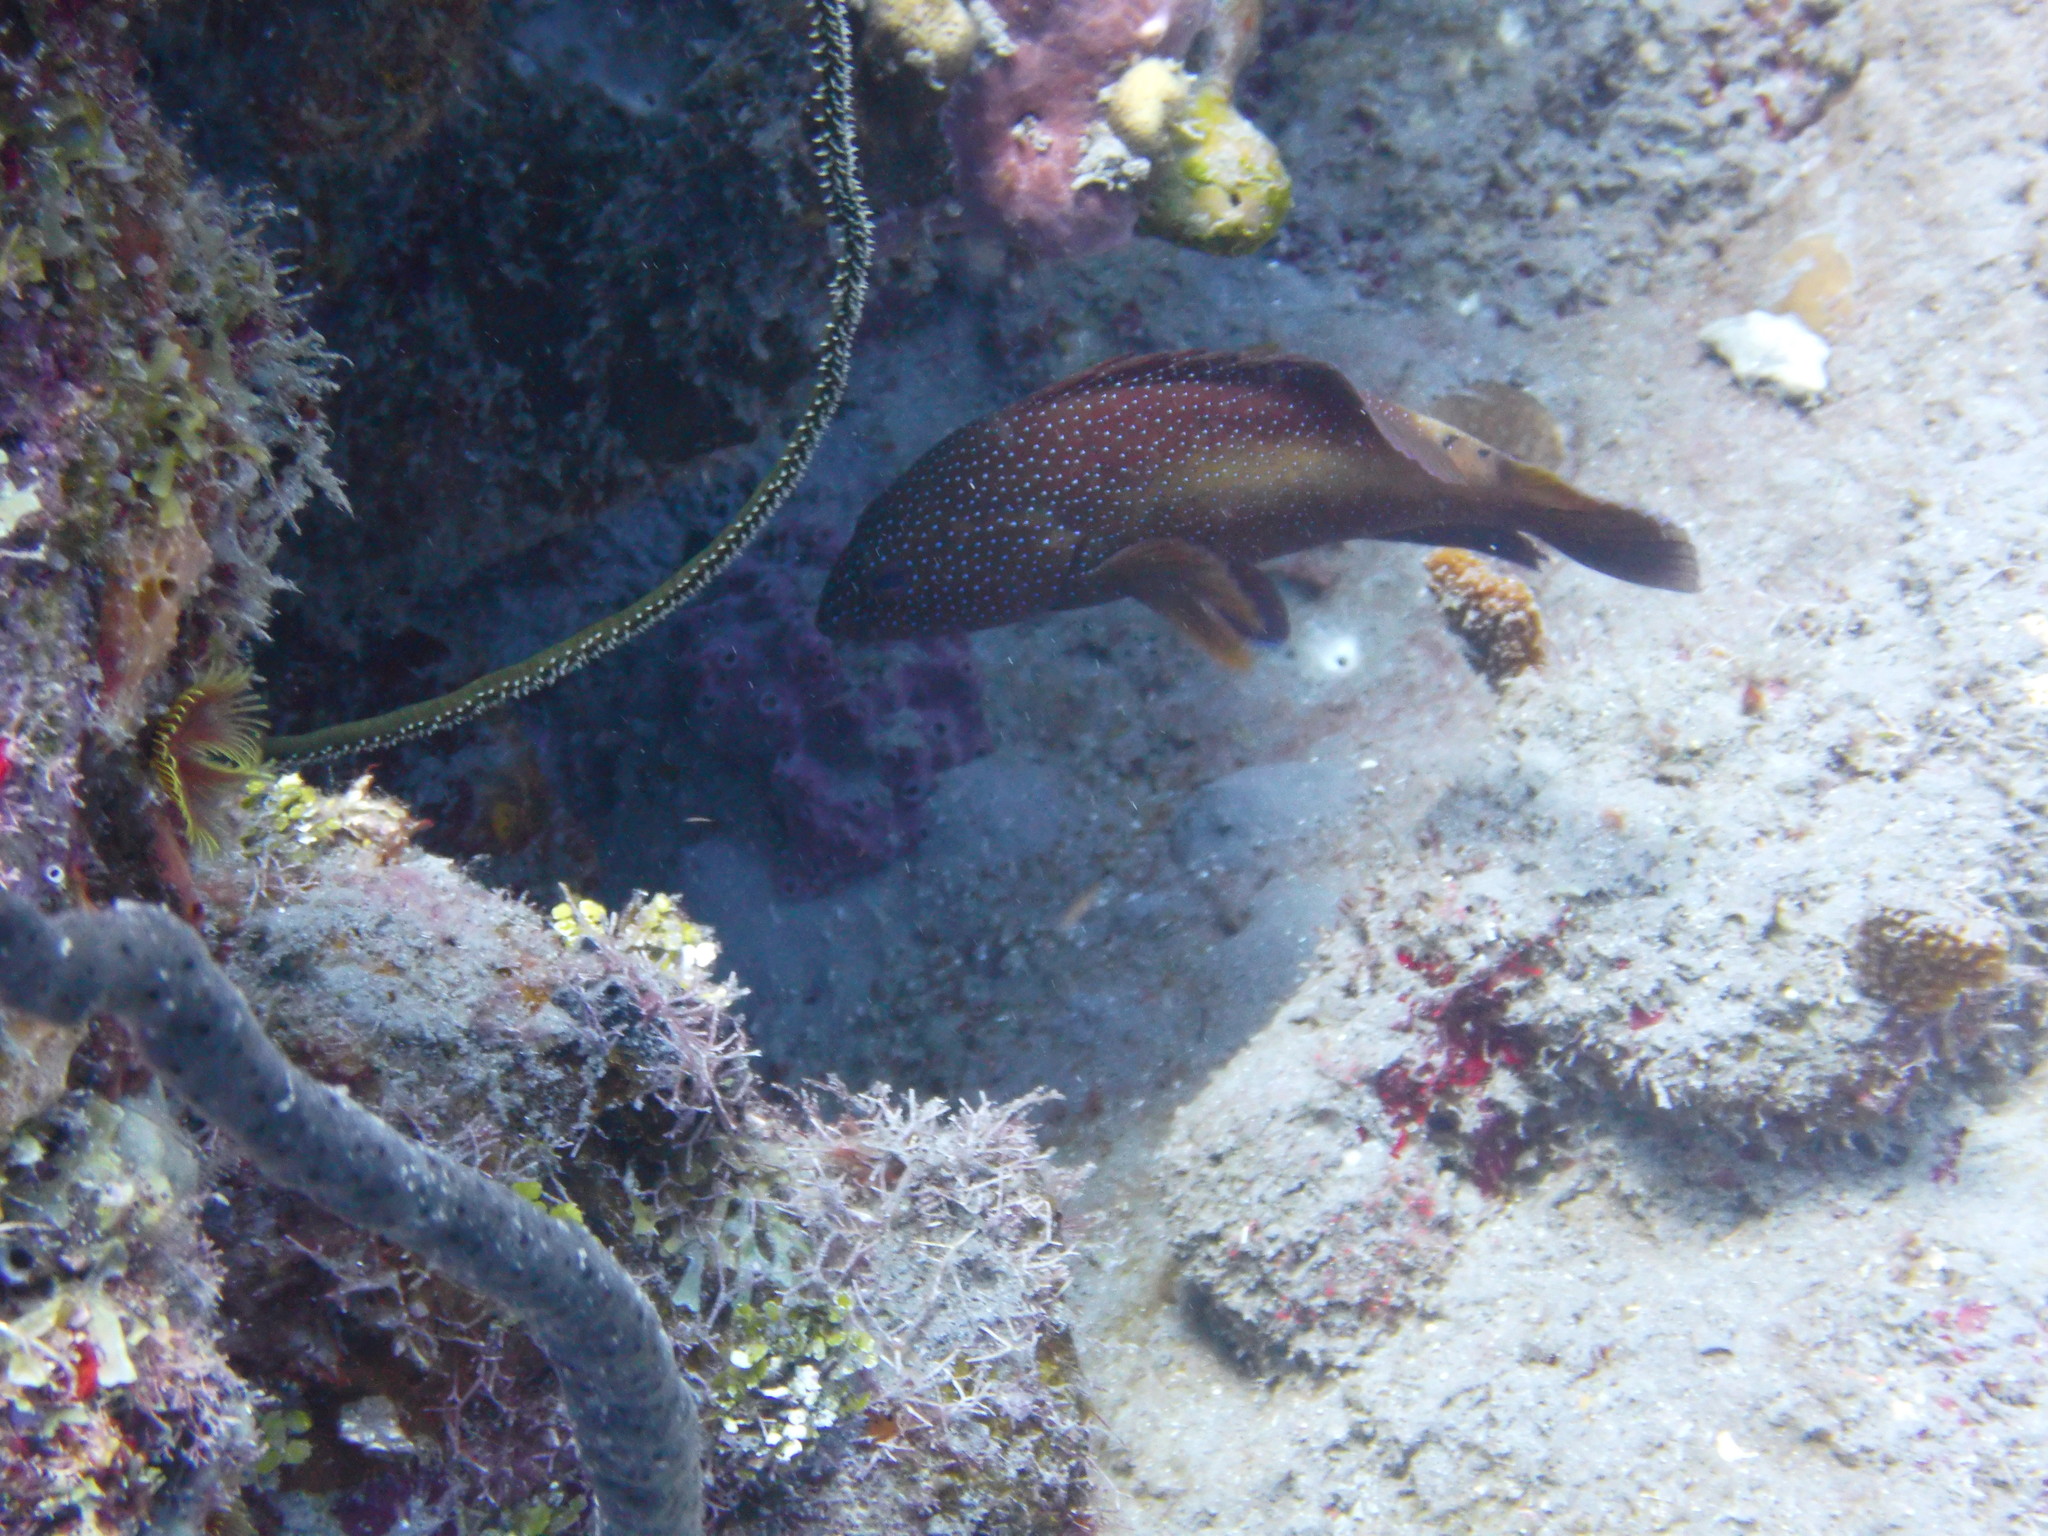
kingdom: Animalia
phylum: Chordata
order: Perciformes
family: Serranidae
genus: Cephalopholis
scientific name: Cephalopholis fulva
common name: Butterfish
